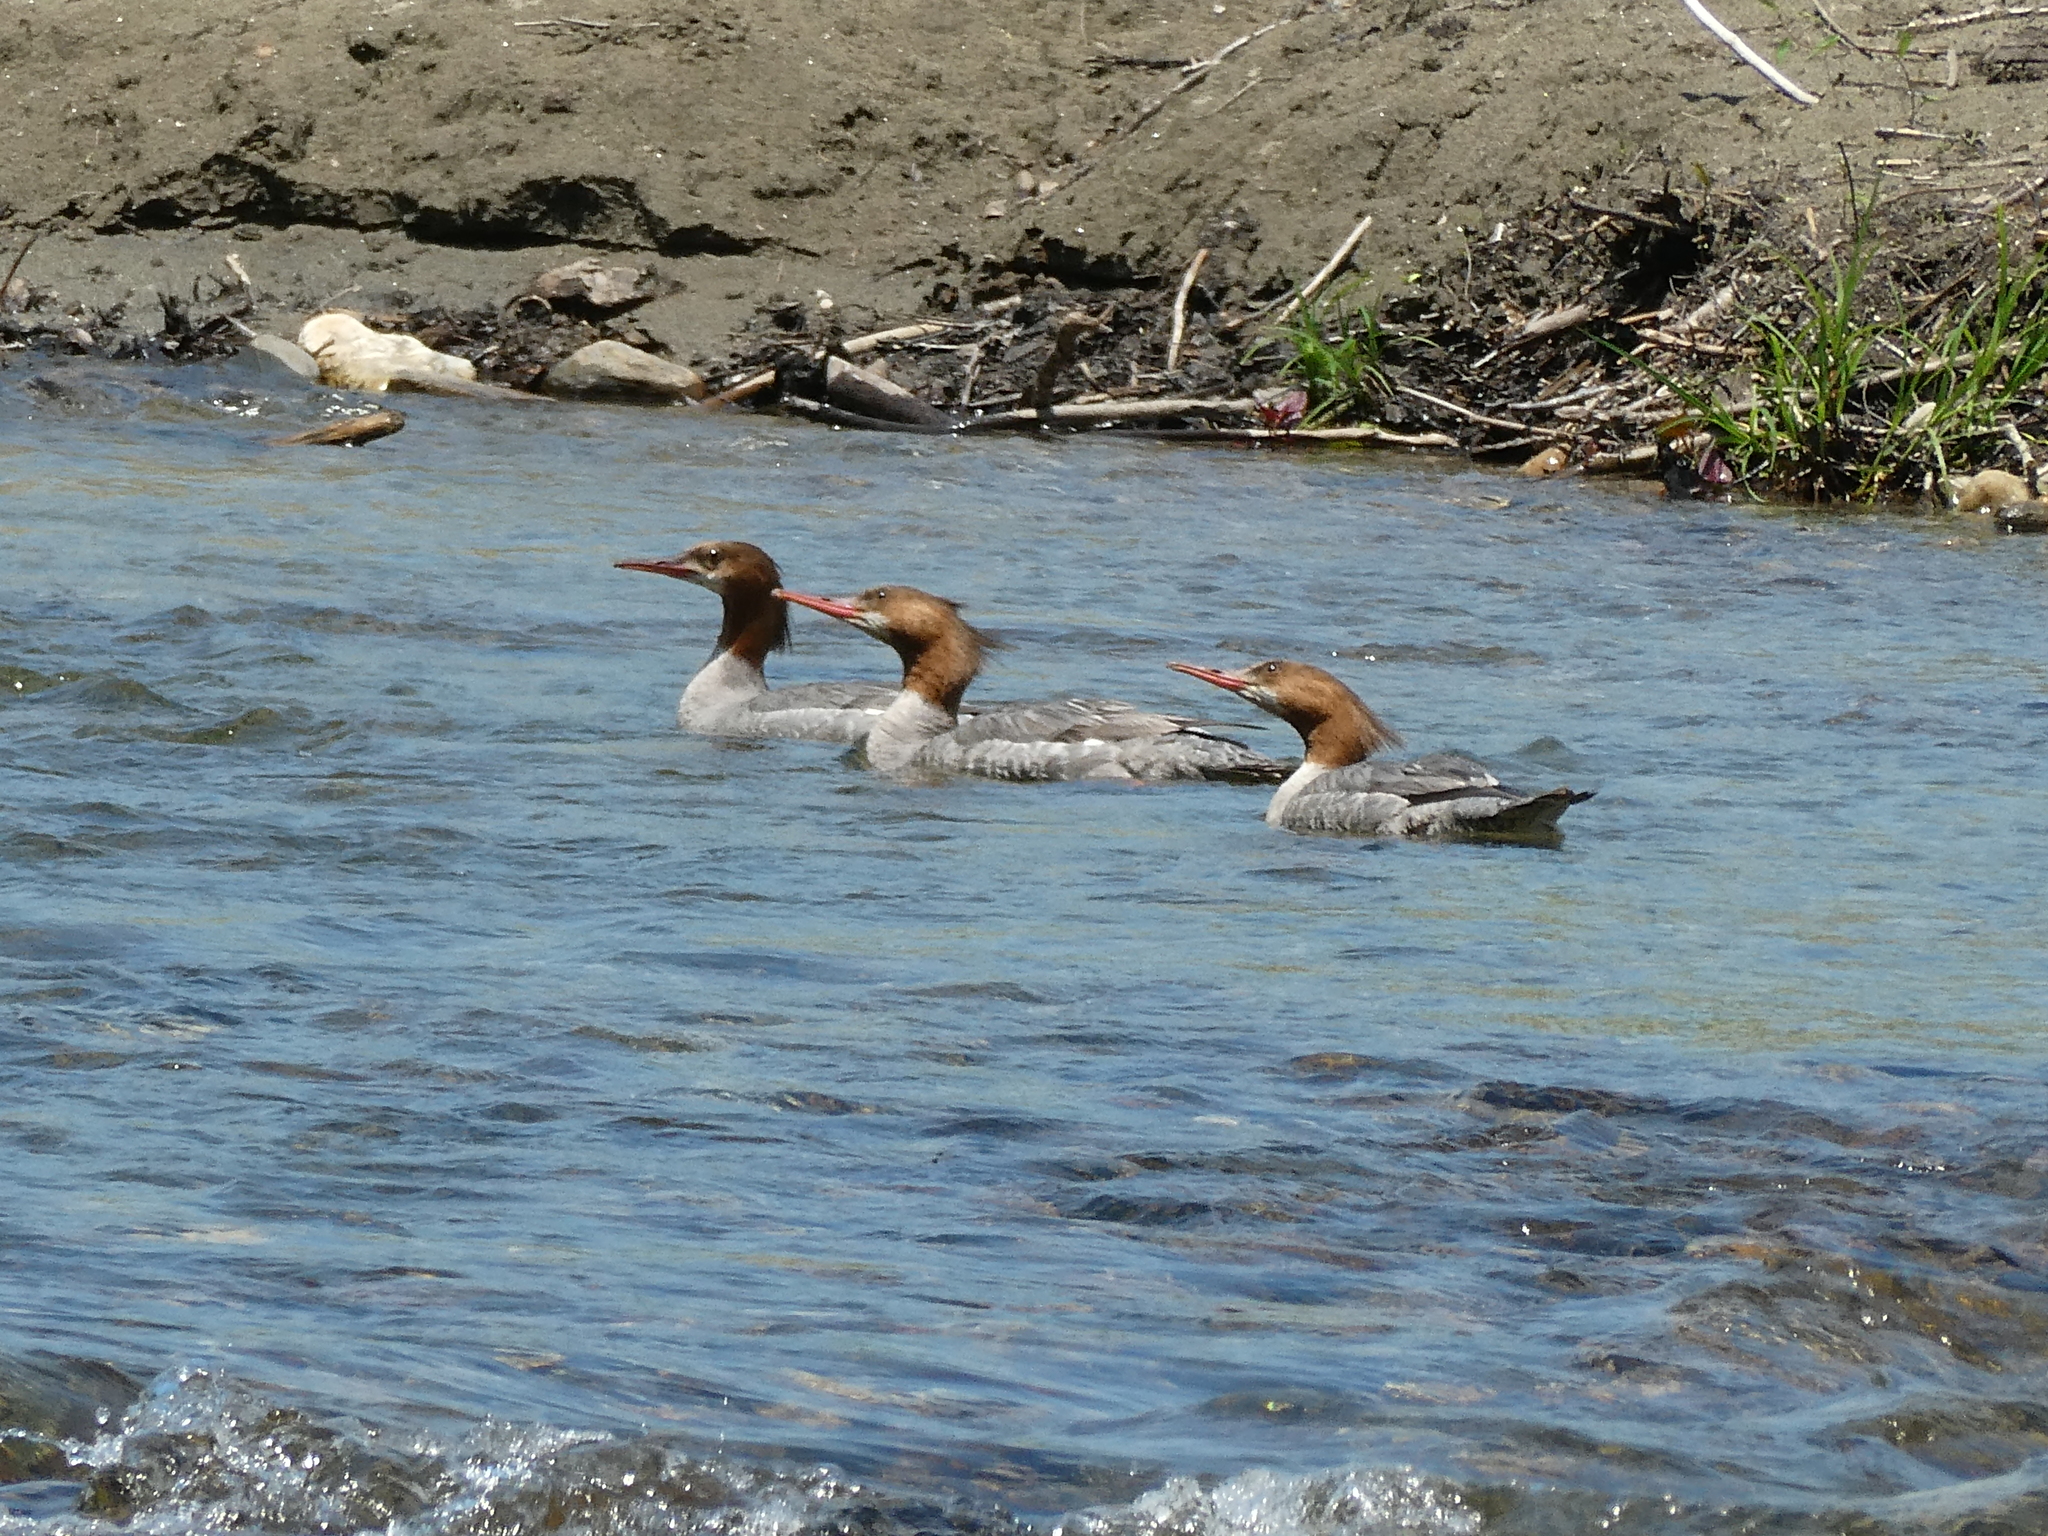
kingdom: Animalia
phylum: Chordata
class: Aves
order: Anseriformes
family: Anatidae
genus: Mergus
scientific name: Mergus merganser
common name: Common merganser
